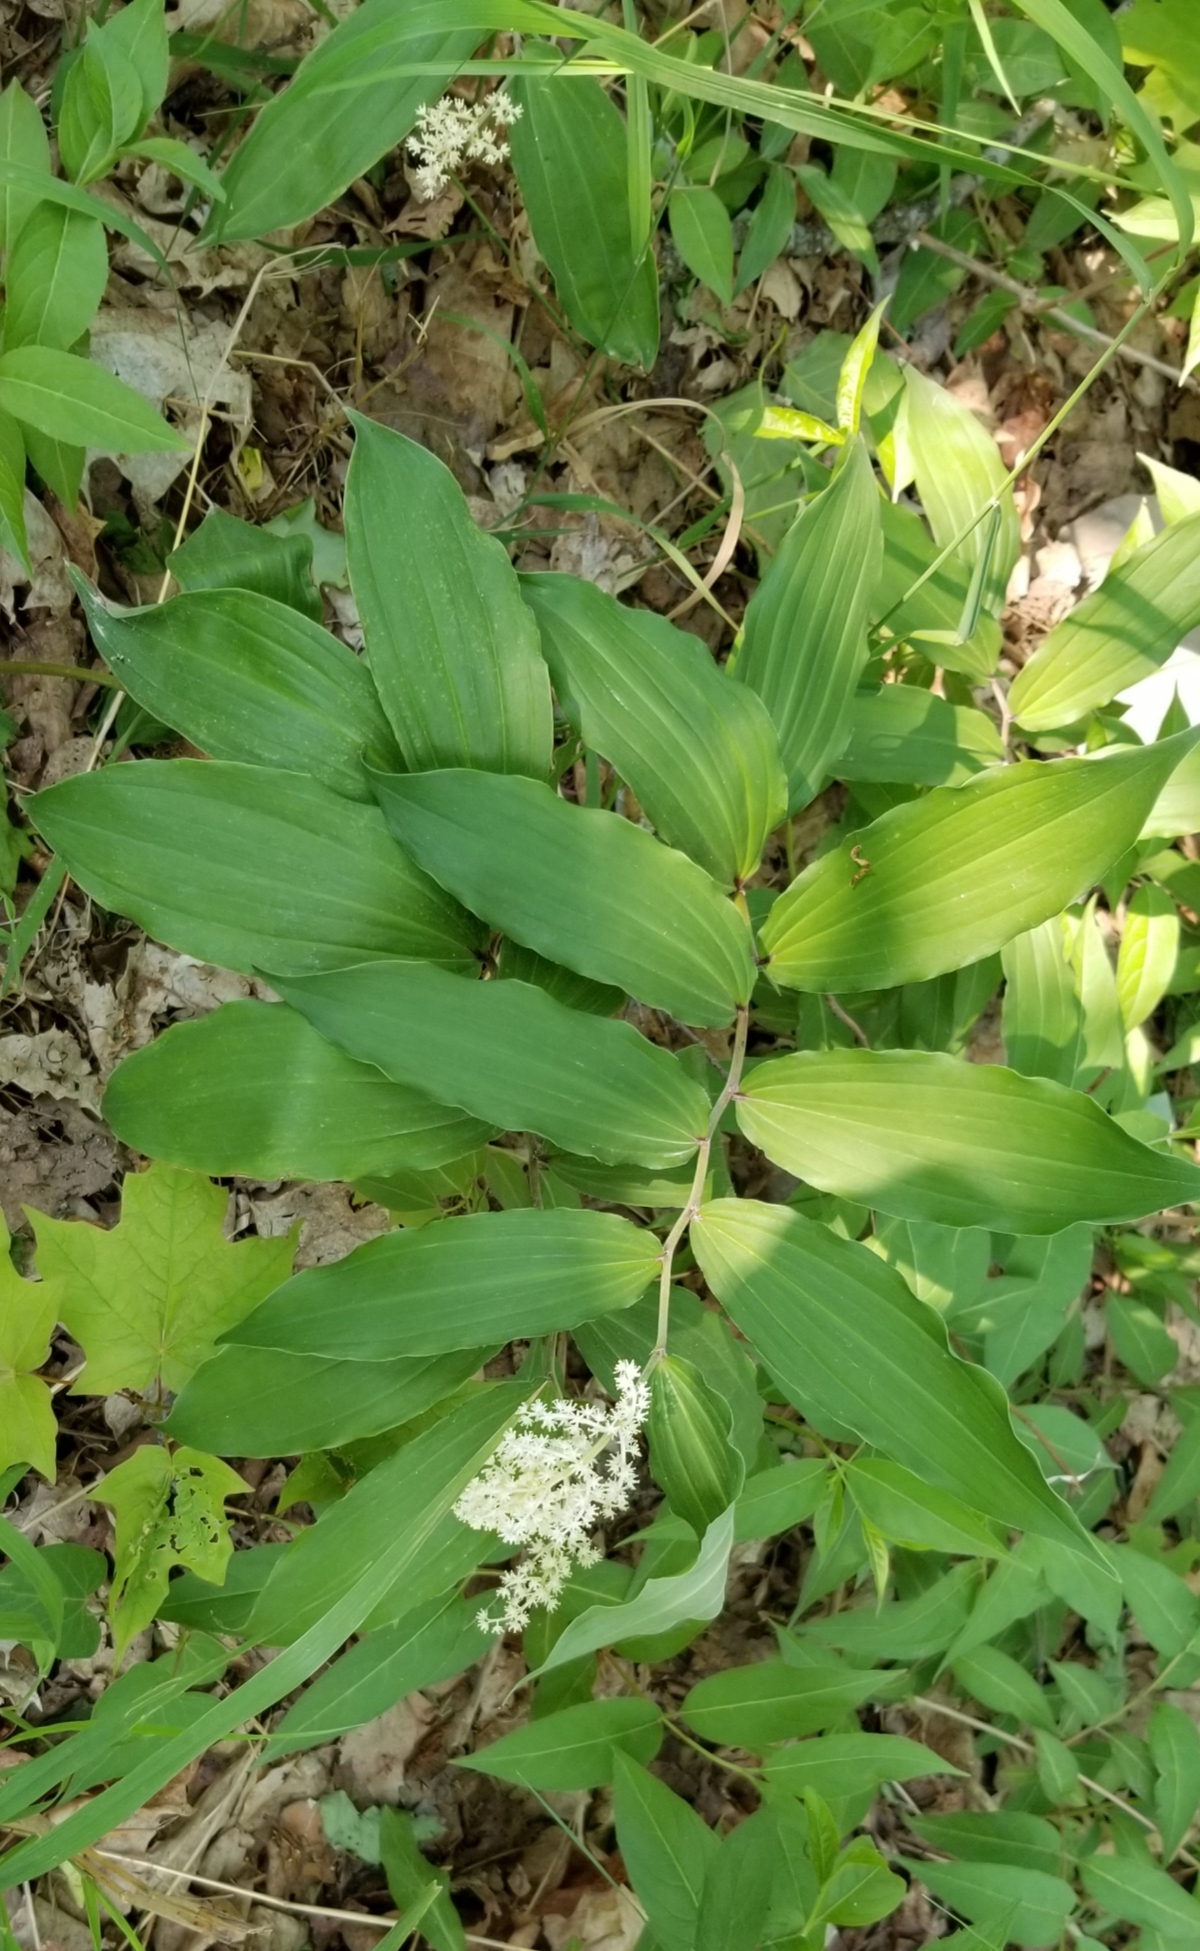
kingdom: Plantae
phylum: Tracheophyta
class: Liliopsida
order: Asparagales
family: Asparagaceae
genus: Maianthemum
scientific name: Maianthemum racemosum
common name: False spikenard
